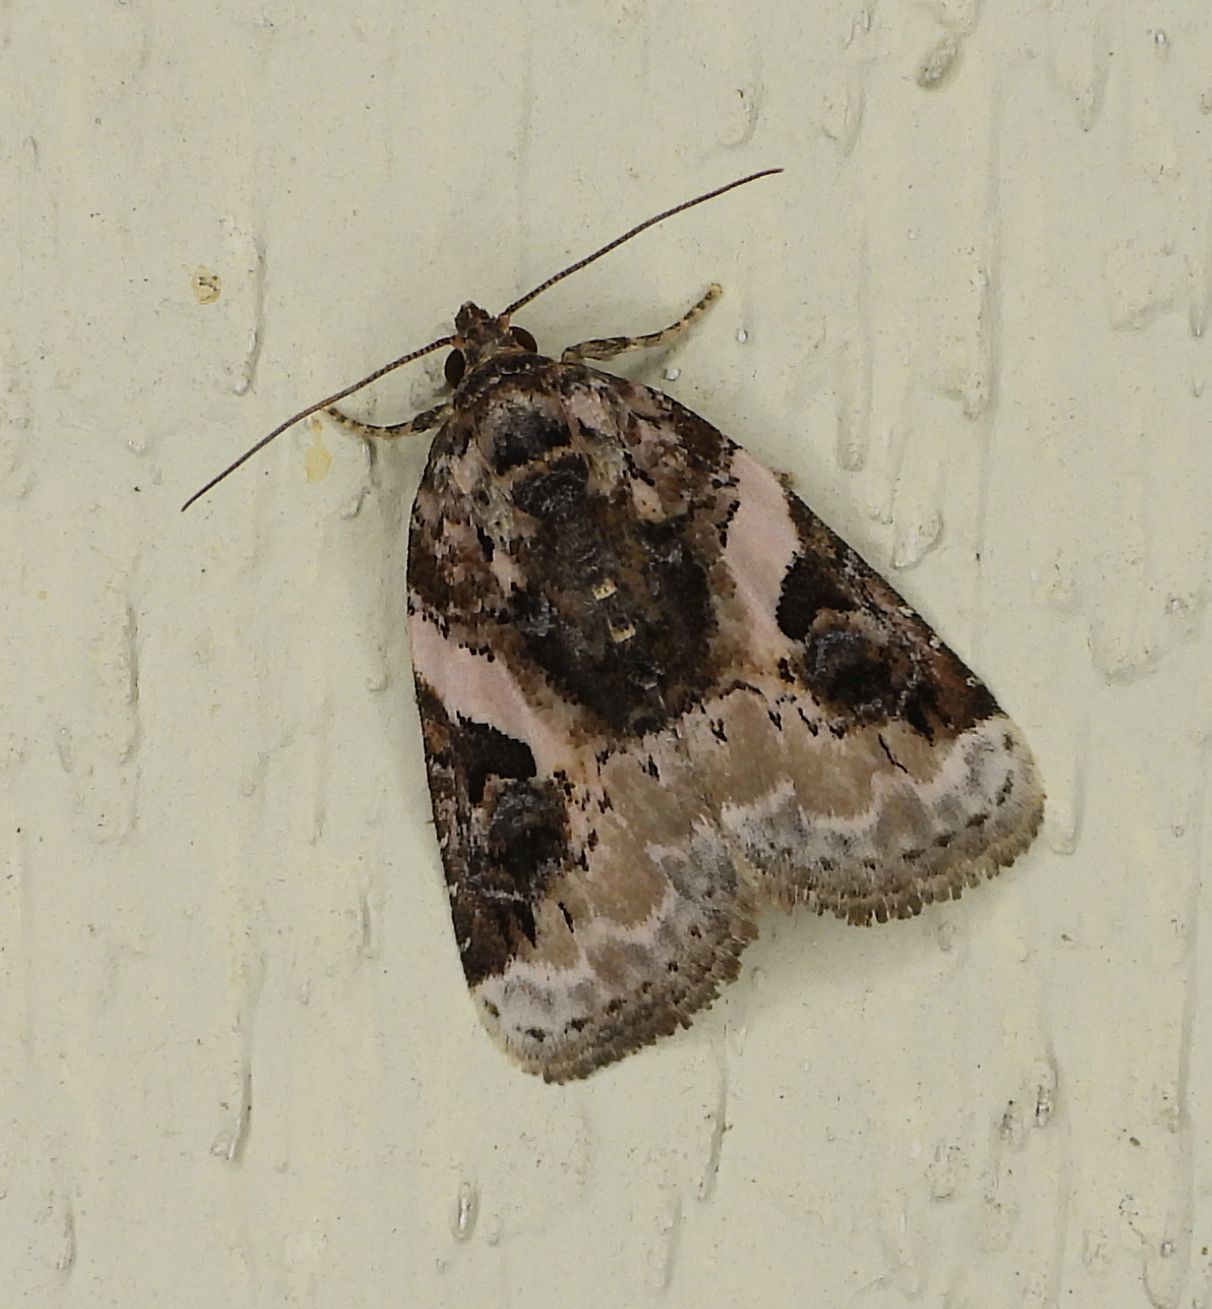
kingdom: Animalia
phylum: Arthropoda
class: Insecta
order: Lepidoptera
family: Noctuidae
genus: Pseudeustrotia
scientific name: Pseudeustrotia carneola
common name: Pink-barred lithacodia moth
